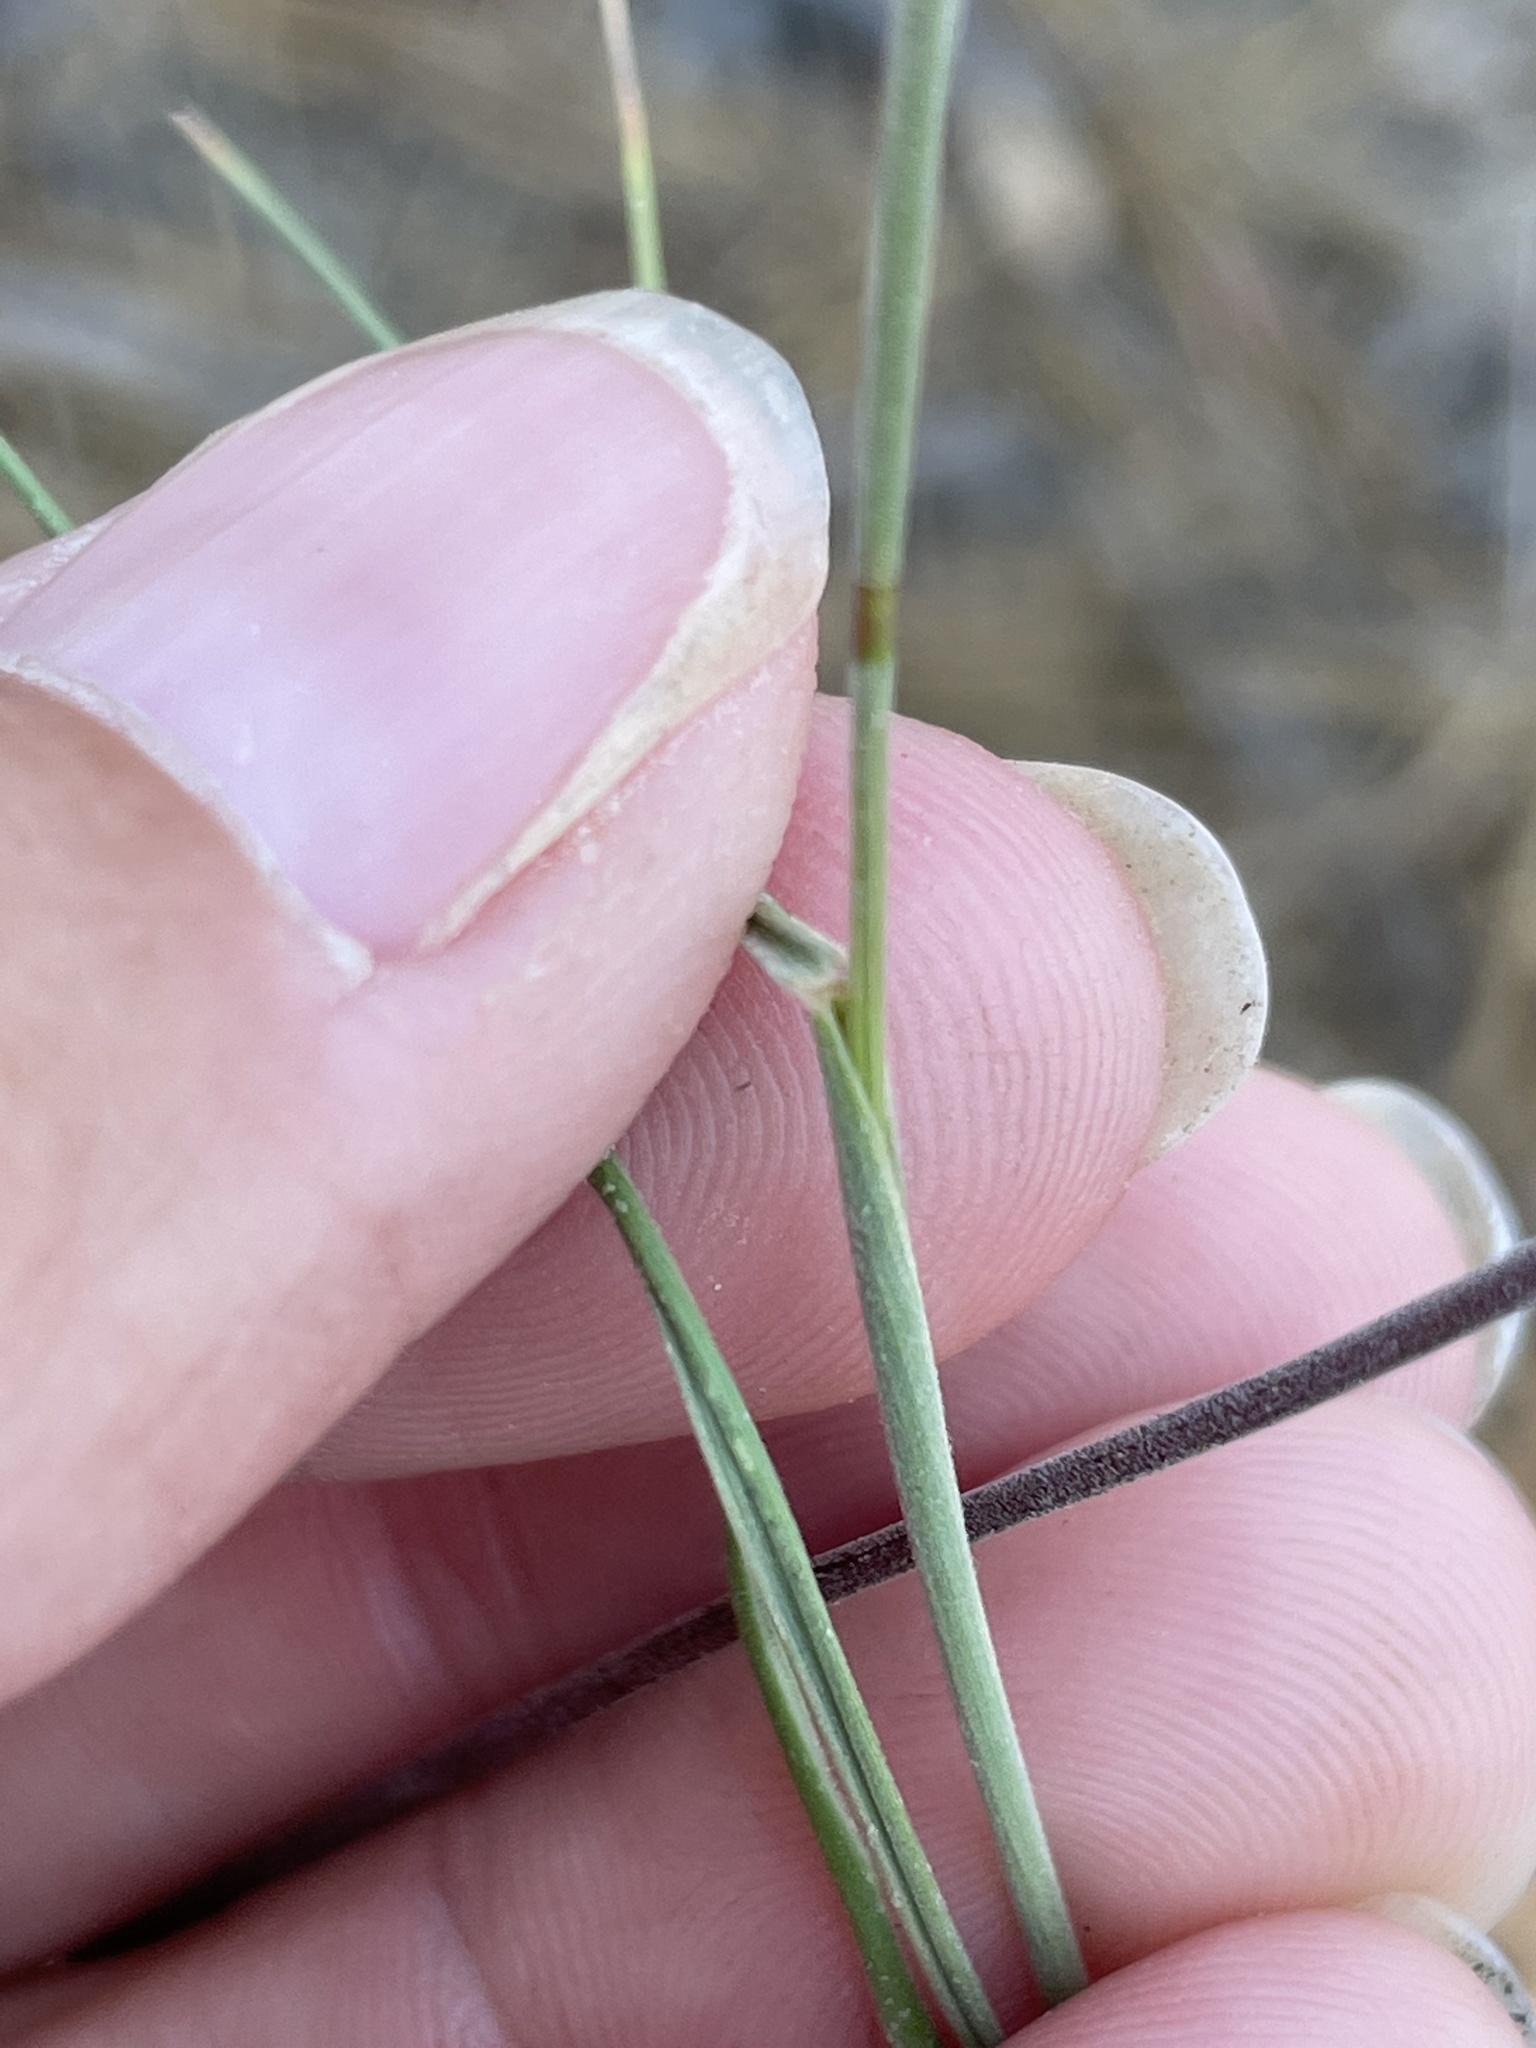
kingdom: Plantae
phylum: Tracheophyta
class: Liliopsida
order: Poales
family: Poaceae
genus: Elymus
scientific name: Elymus elymoides
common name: Bottlebrush squirreltail
